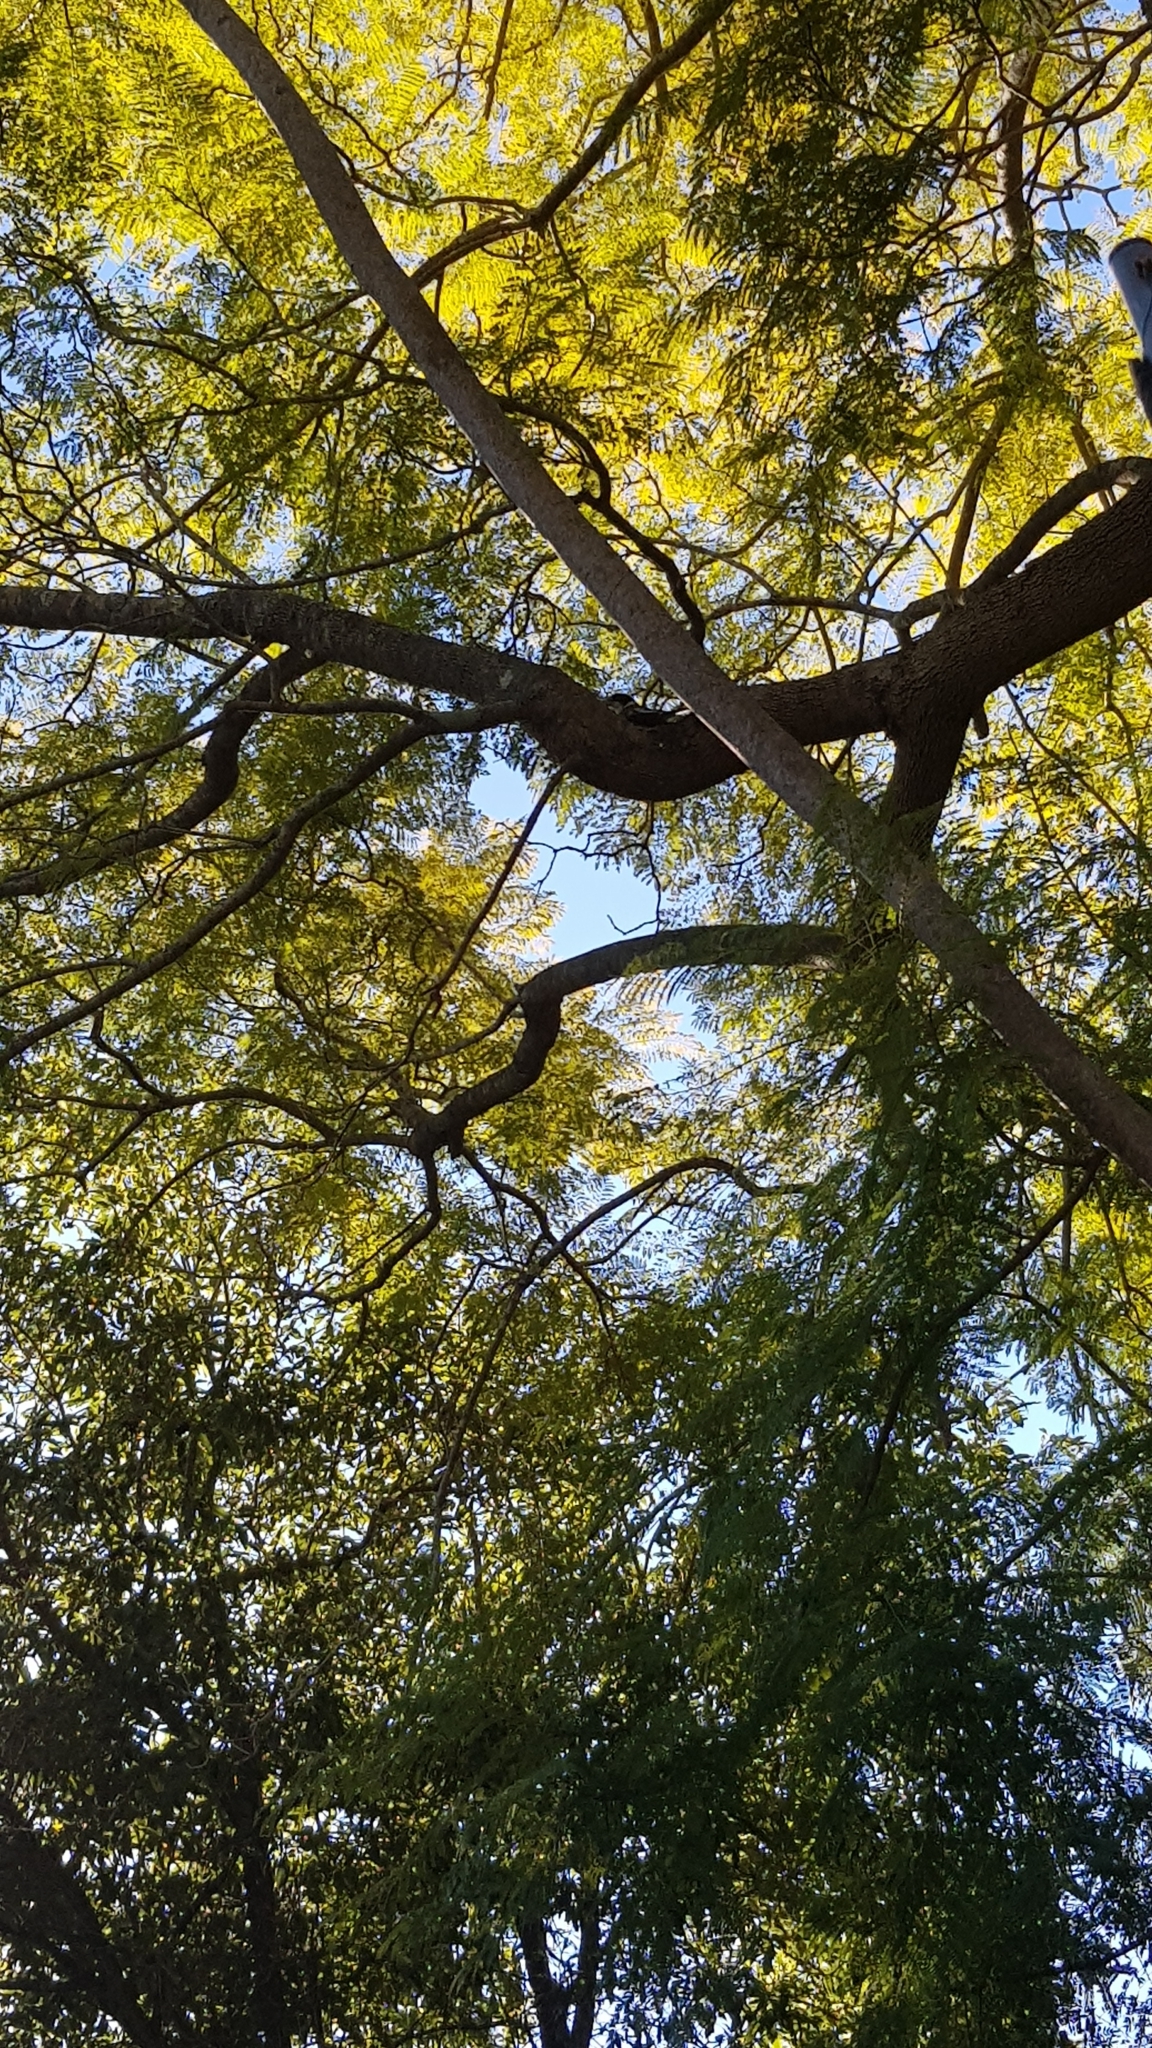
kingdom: Animalia
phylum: Chordata
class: Aves
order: Passeriformes
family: Cracticidae
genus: Cracticus
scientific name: Cracticus torquatus
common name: Grey butcherbird
